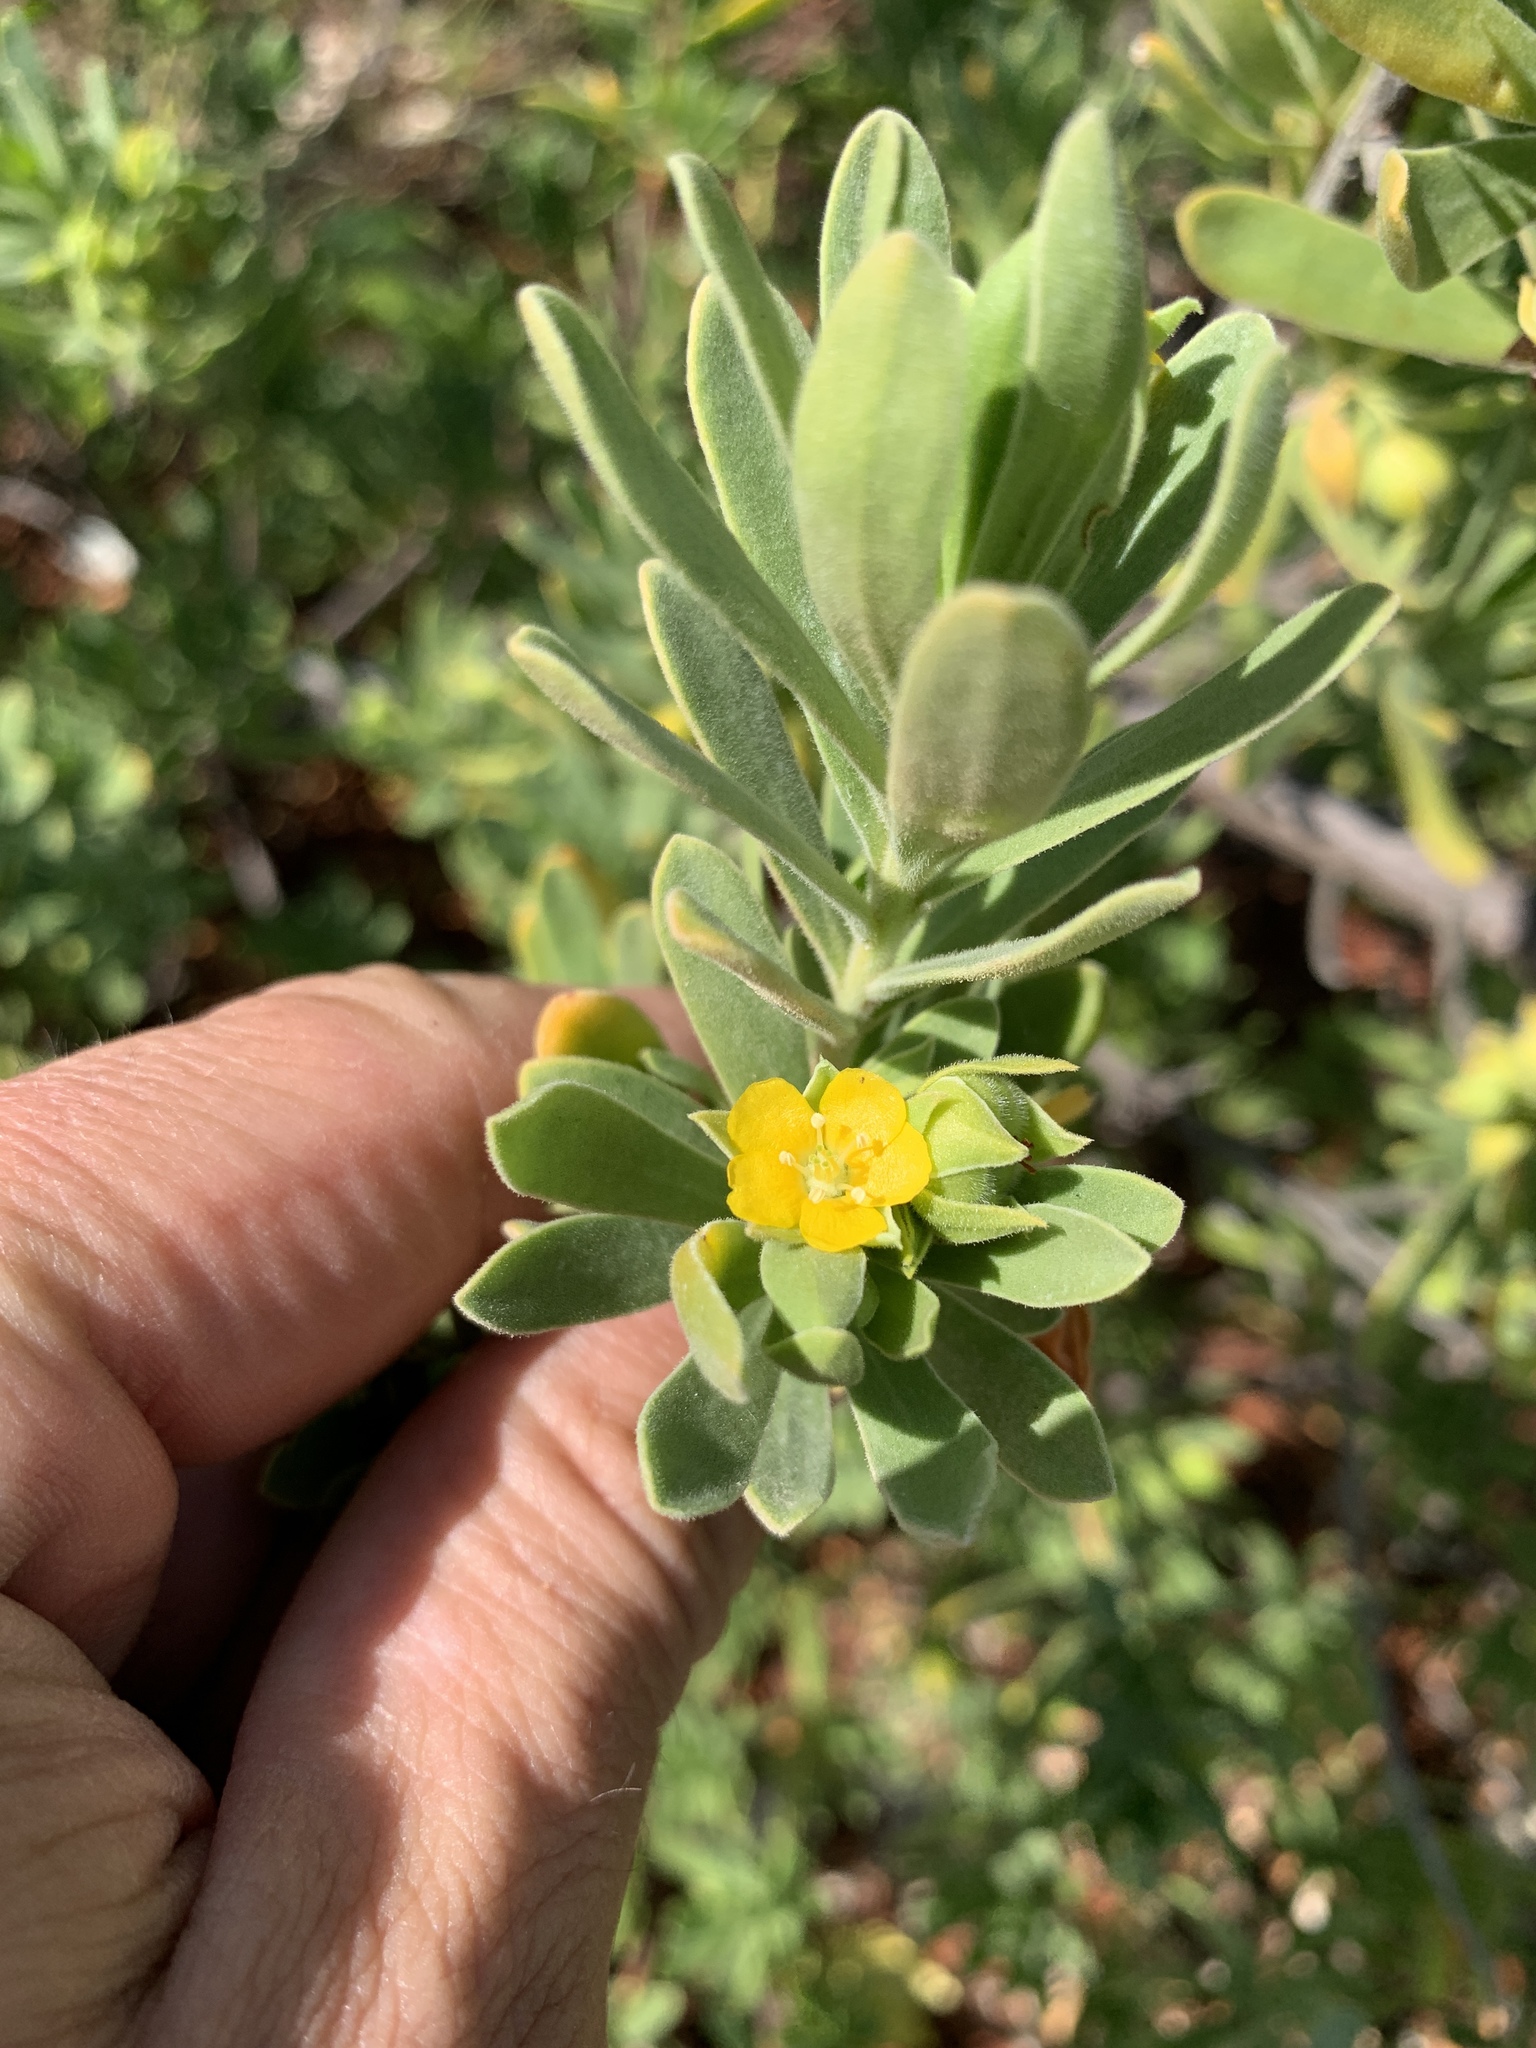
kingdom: Plantae
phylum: Tracheophyta
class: Magnoliopsida
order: Fabales
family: Surianaceae
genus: Suriana
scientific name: Suriana maritima
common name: Bay-cedar
